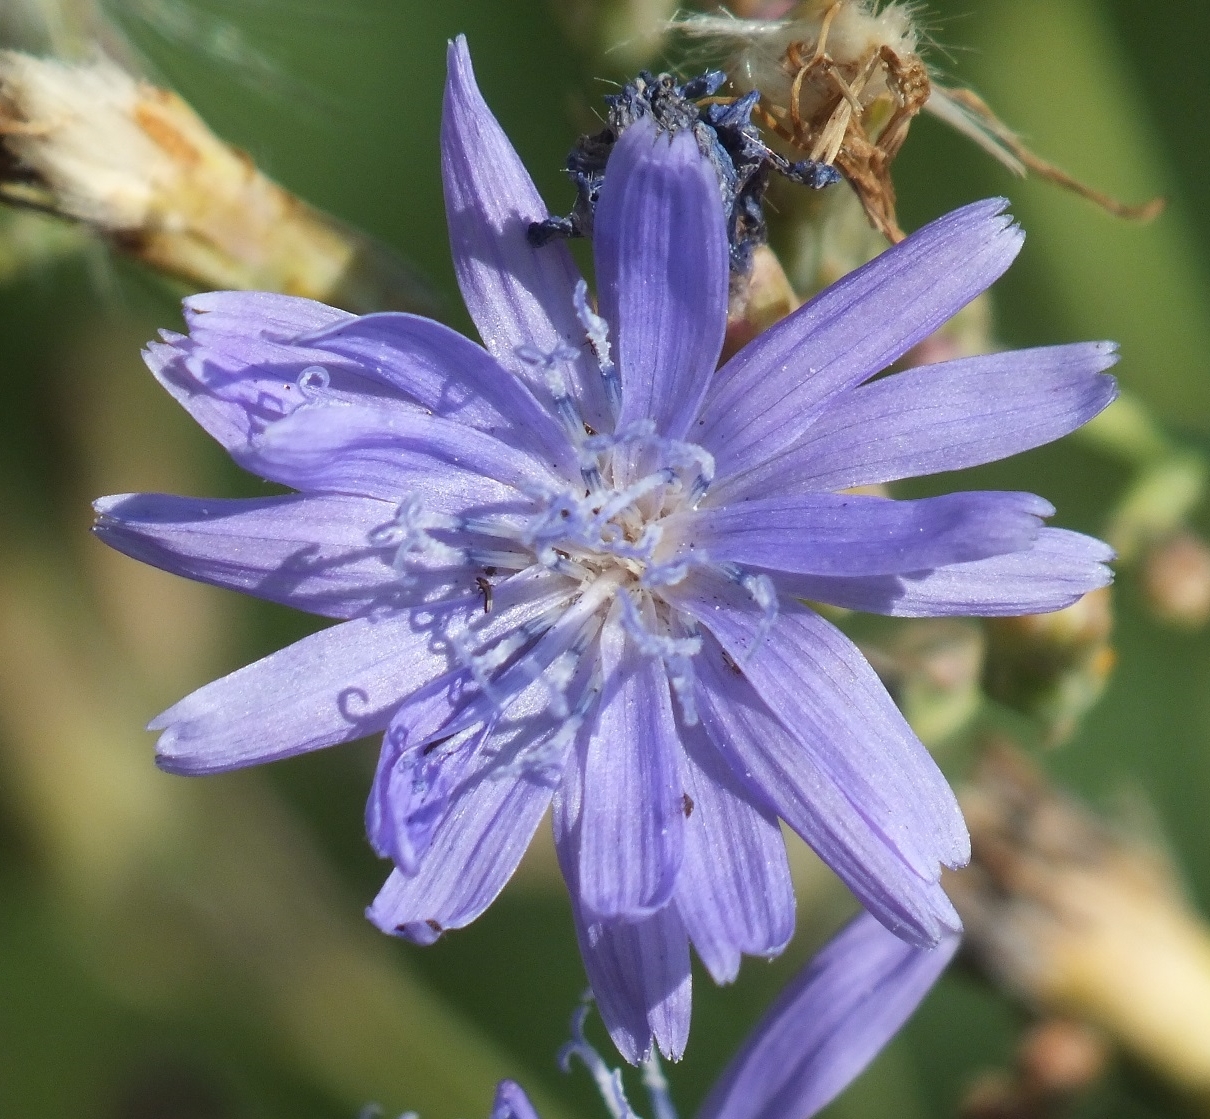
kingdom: Plantae
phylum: Tracheophyta
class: Magnoliopsida
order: Asterales
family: Asteraceae
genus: Lactuca
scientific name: Lactuca tatarica
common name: Blue lettuce
